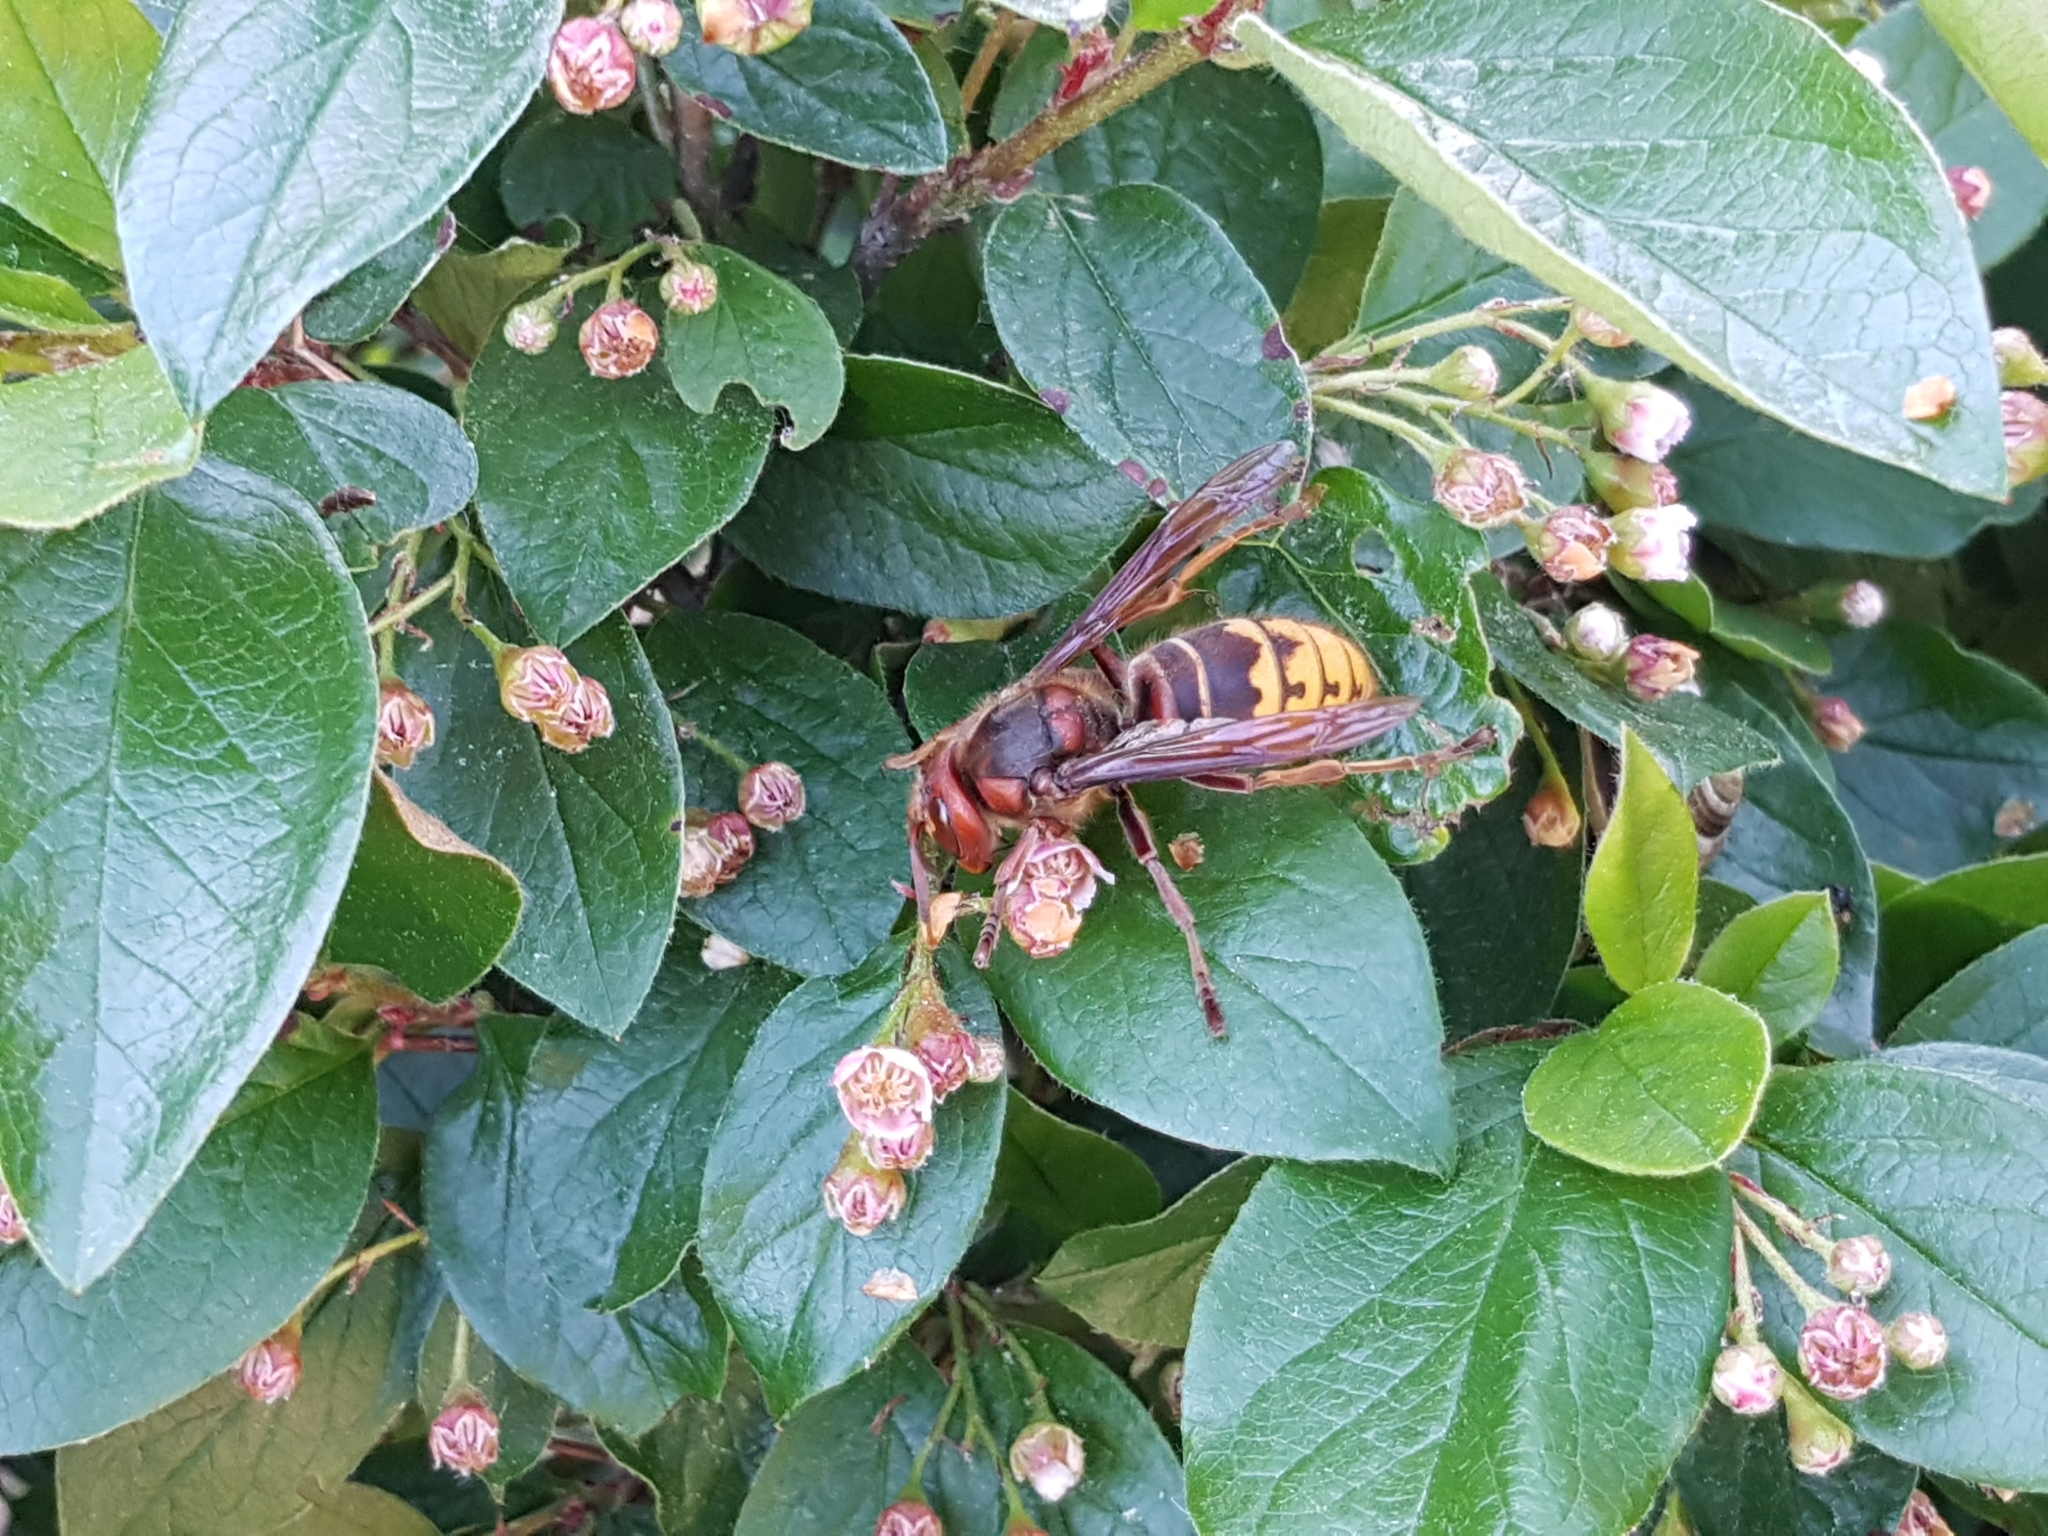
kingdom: Animalia
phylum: Arthropoda
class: Insecta
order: Hymenoptera
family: Vespidae
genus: Vespa
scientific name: Vespa crabro
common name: Hornet
